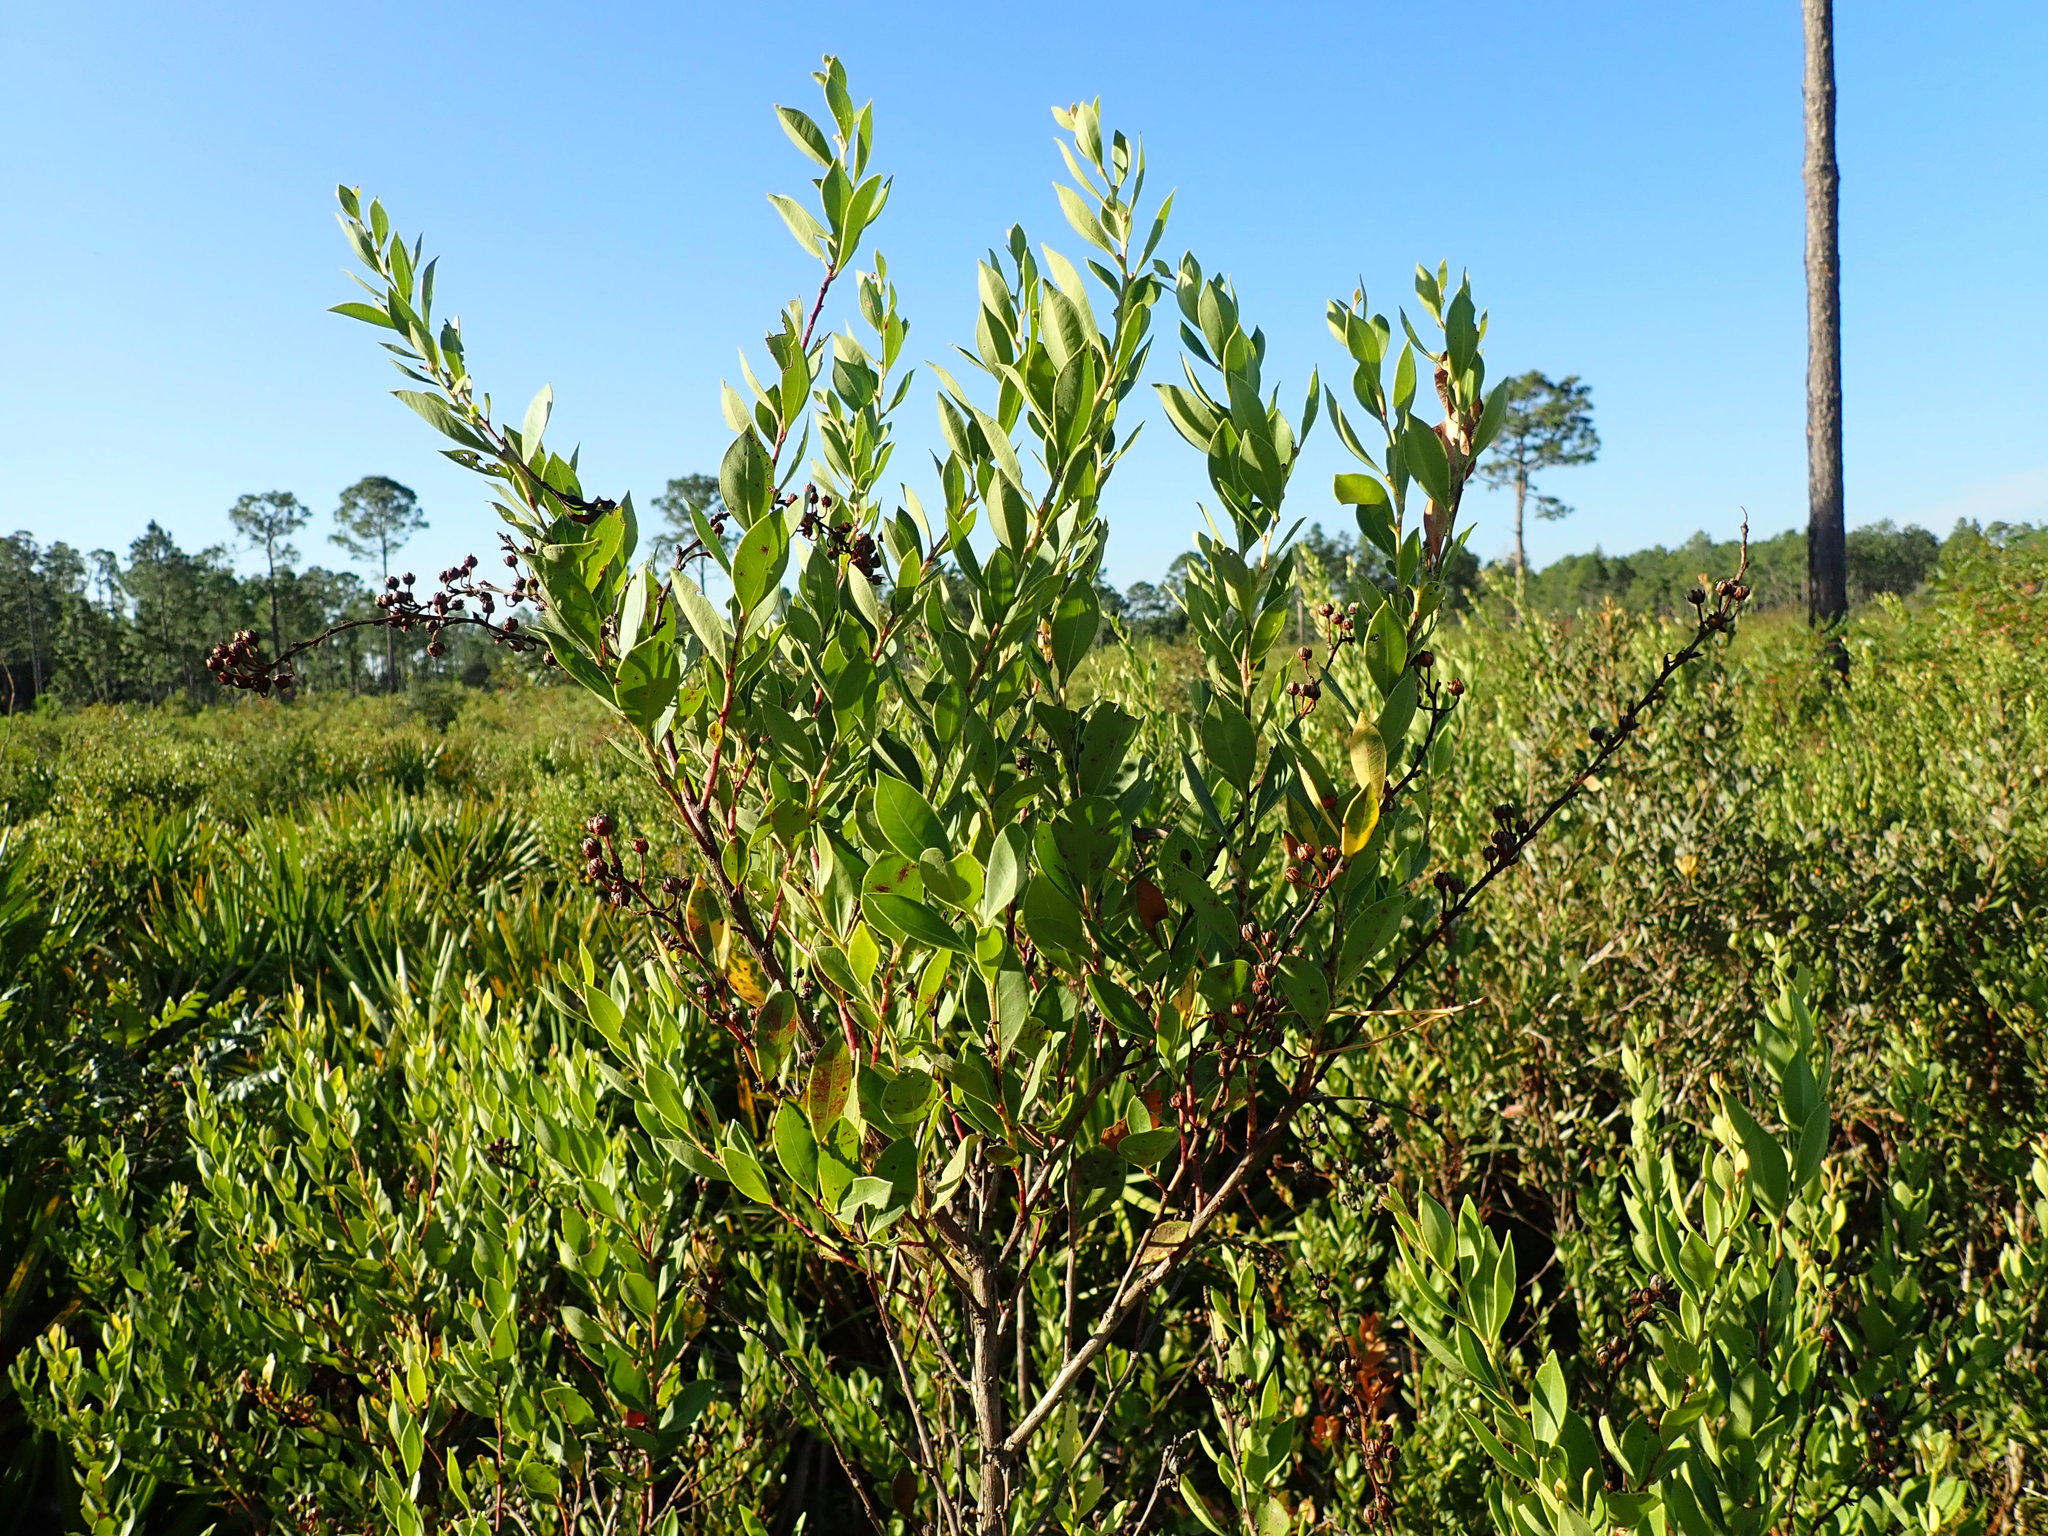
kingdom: Plantae
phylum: Tracheophyta
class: Magnoliopsida
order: Ericales
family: Ericaceae
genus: Lyonia
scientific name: Lyonia lucida
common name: Fetterbush
